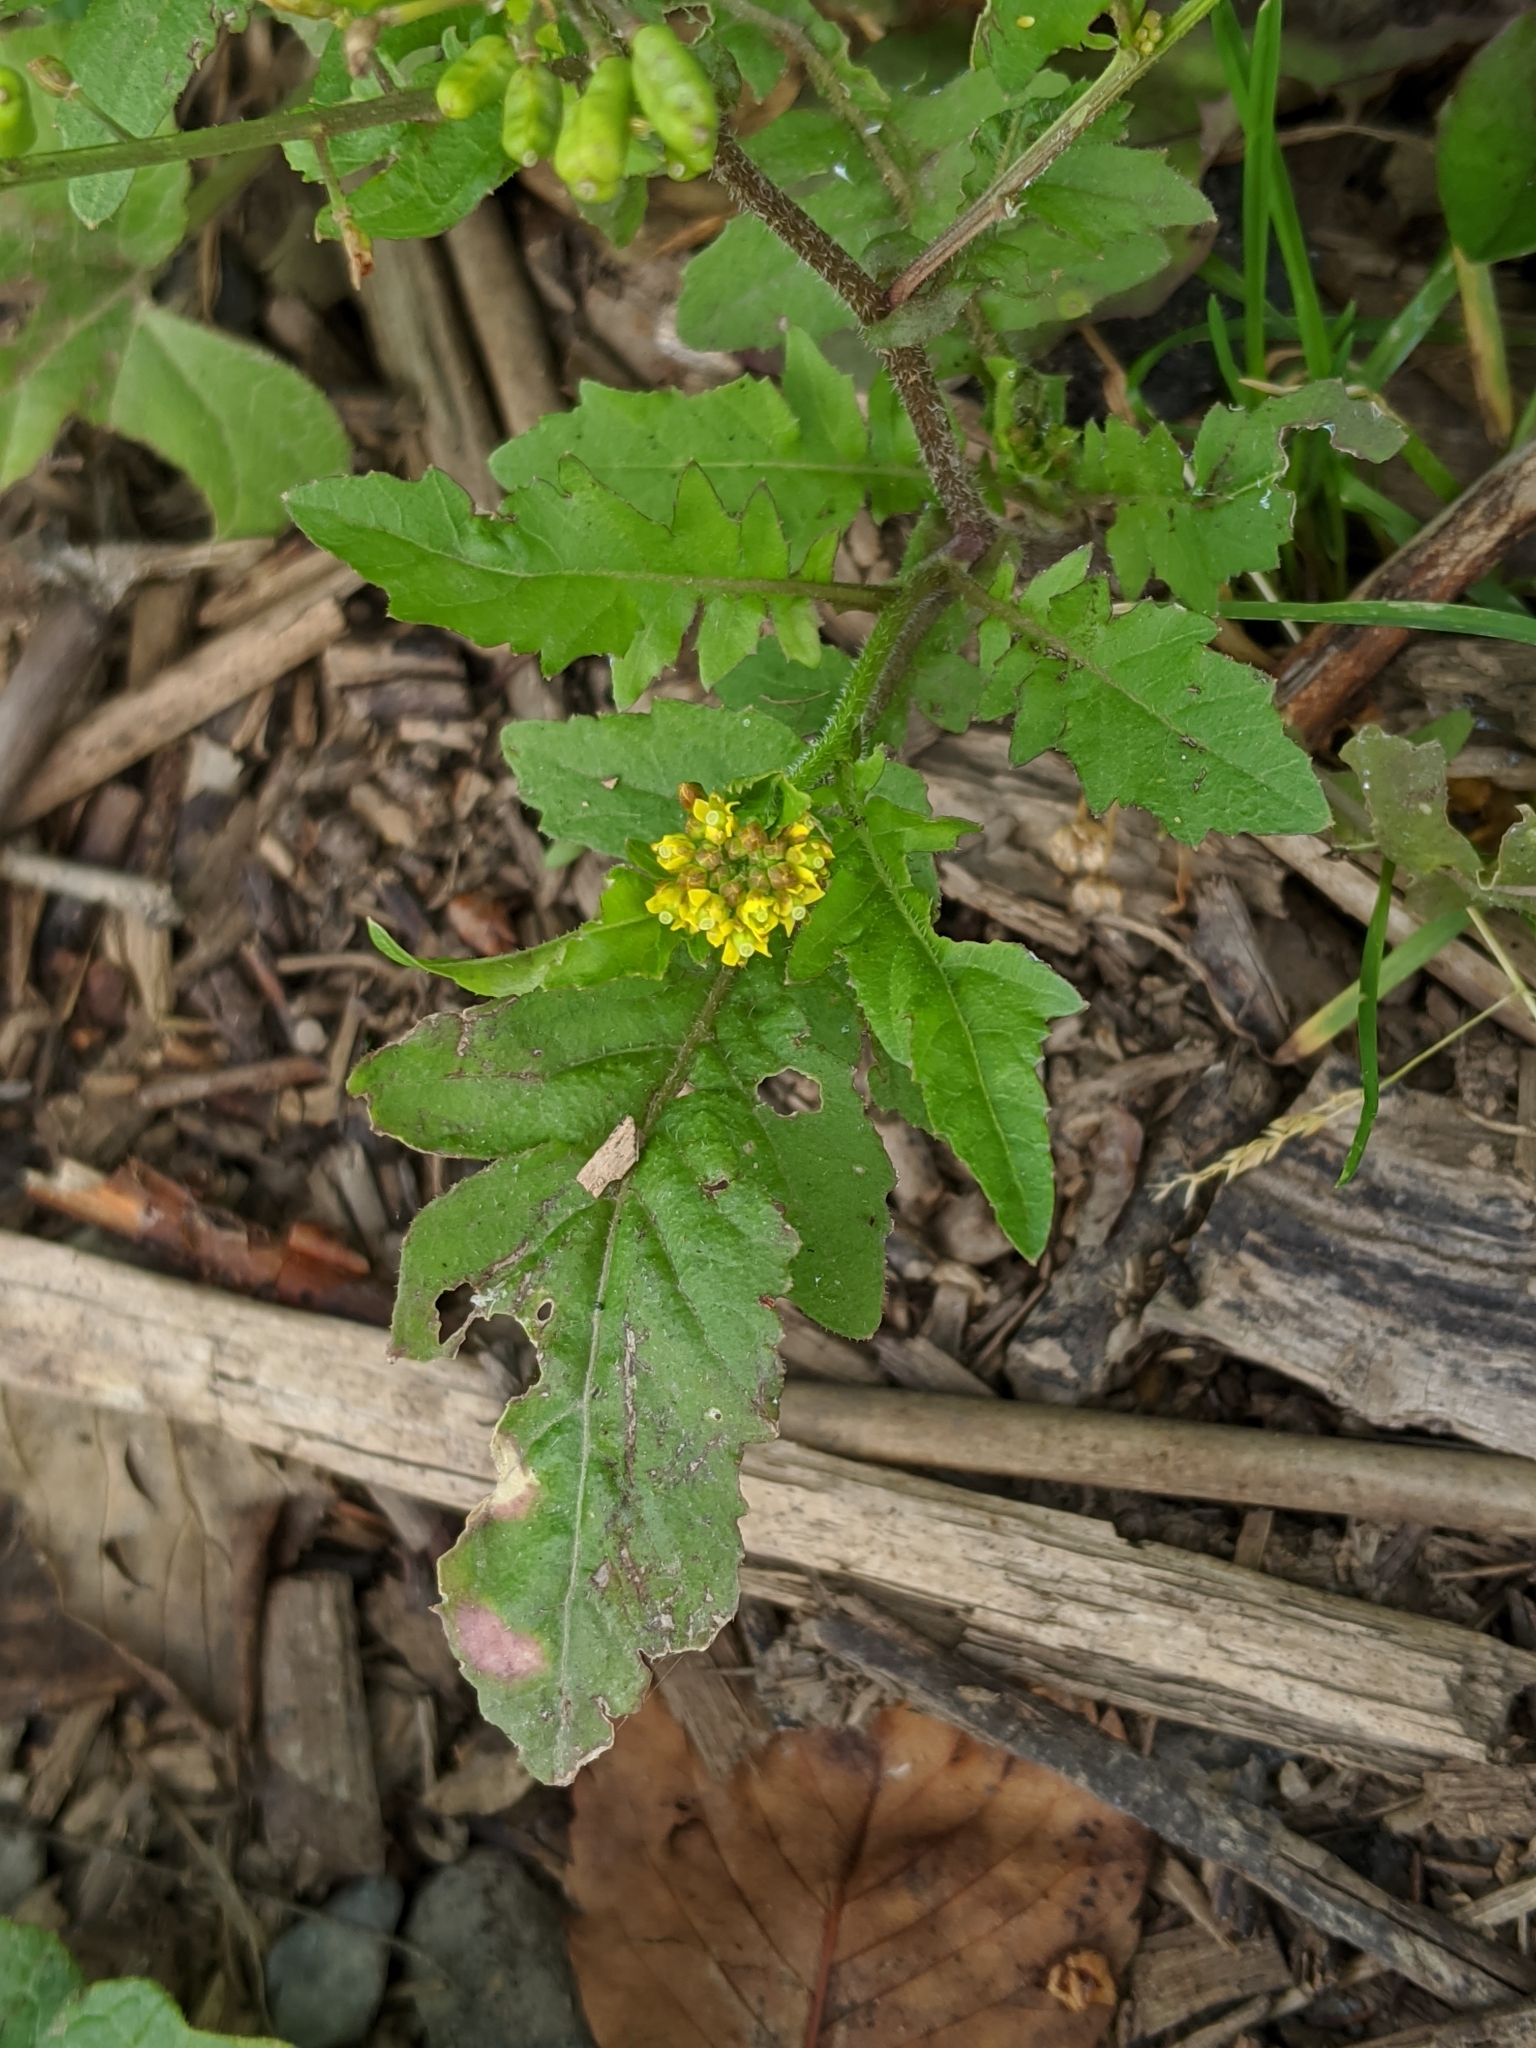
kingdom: Plantae
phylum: Tracheophyta
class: Magnoliopsida
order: Brassicales
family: Brassicaceae
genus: Rorippa
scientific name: Rorippa palustris
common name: Marsh yellow-cress
